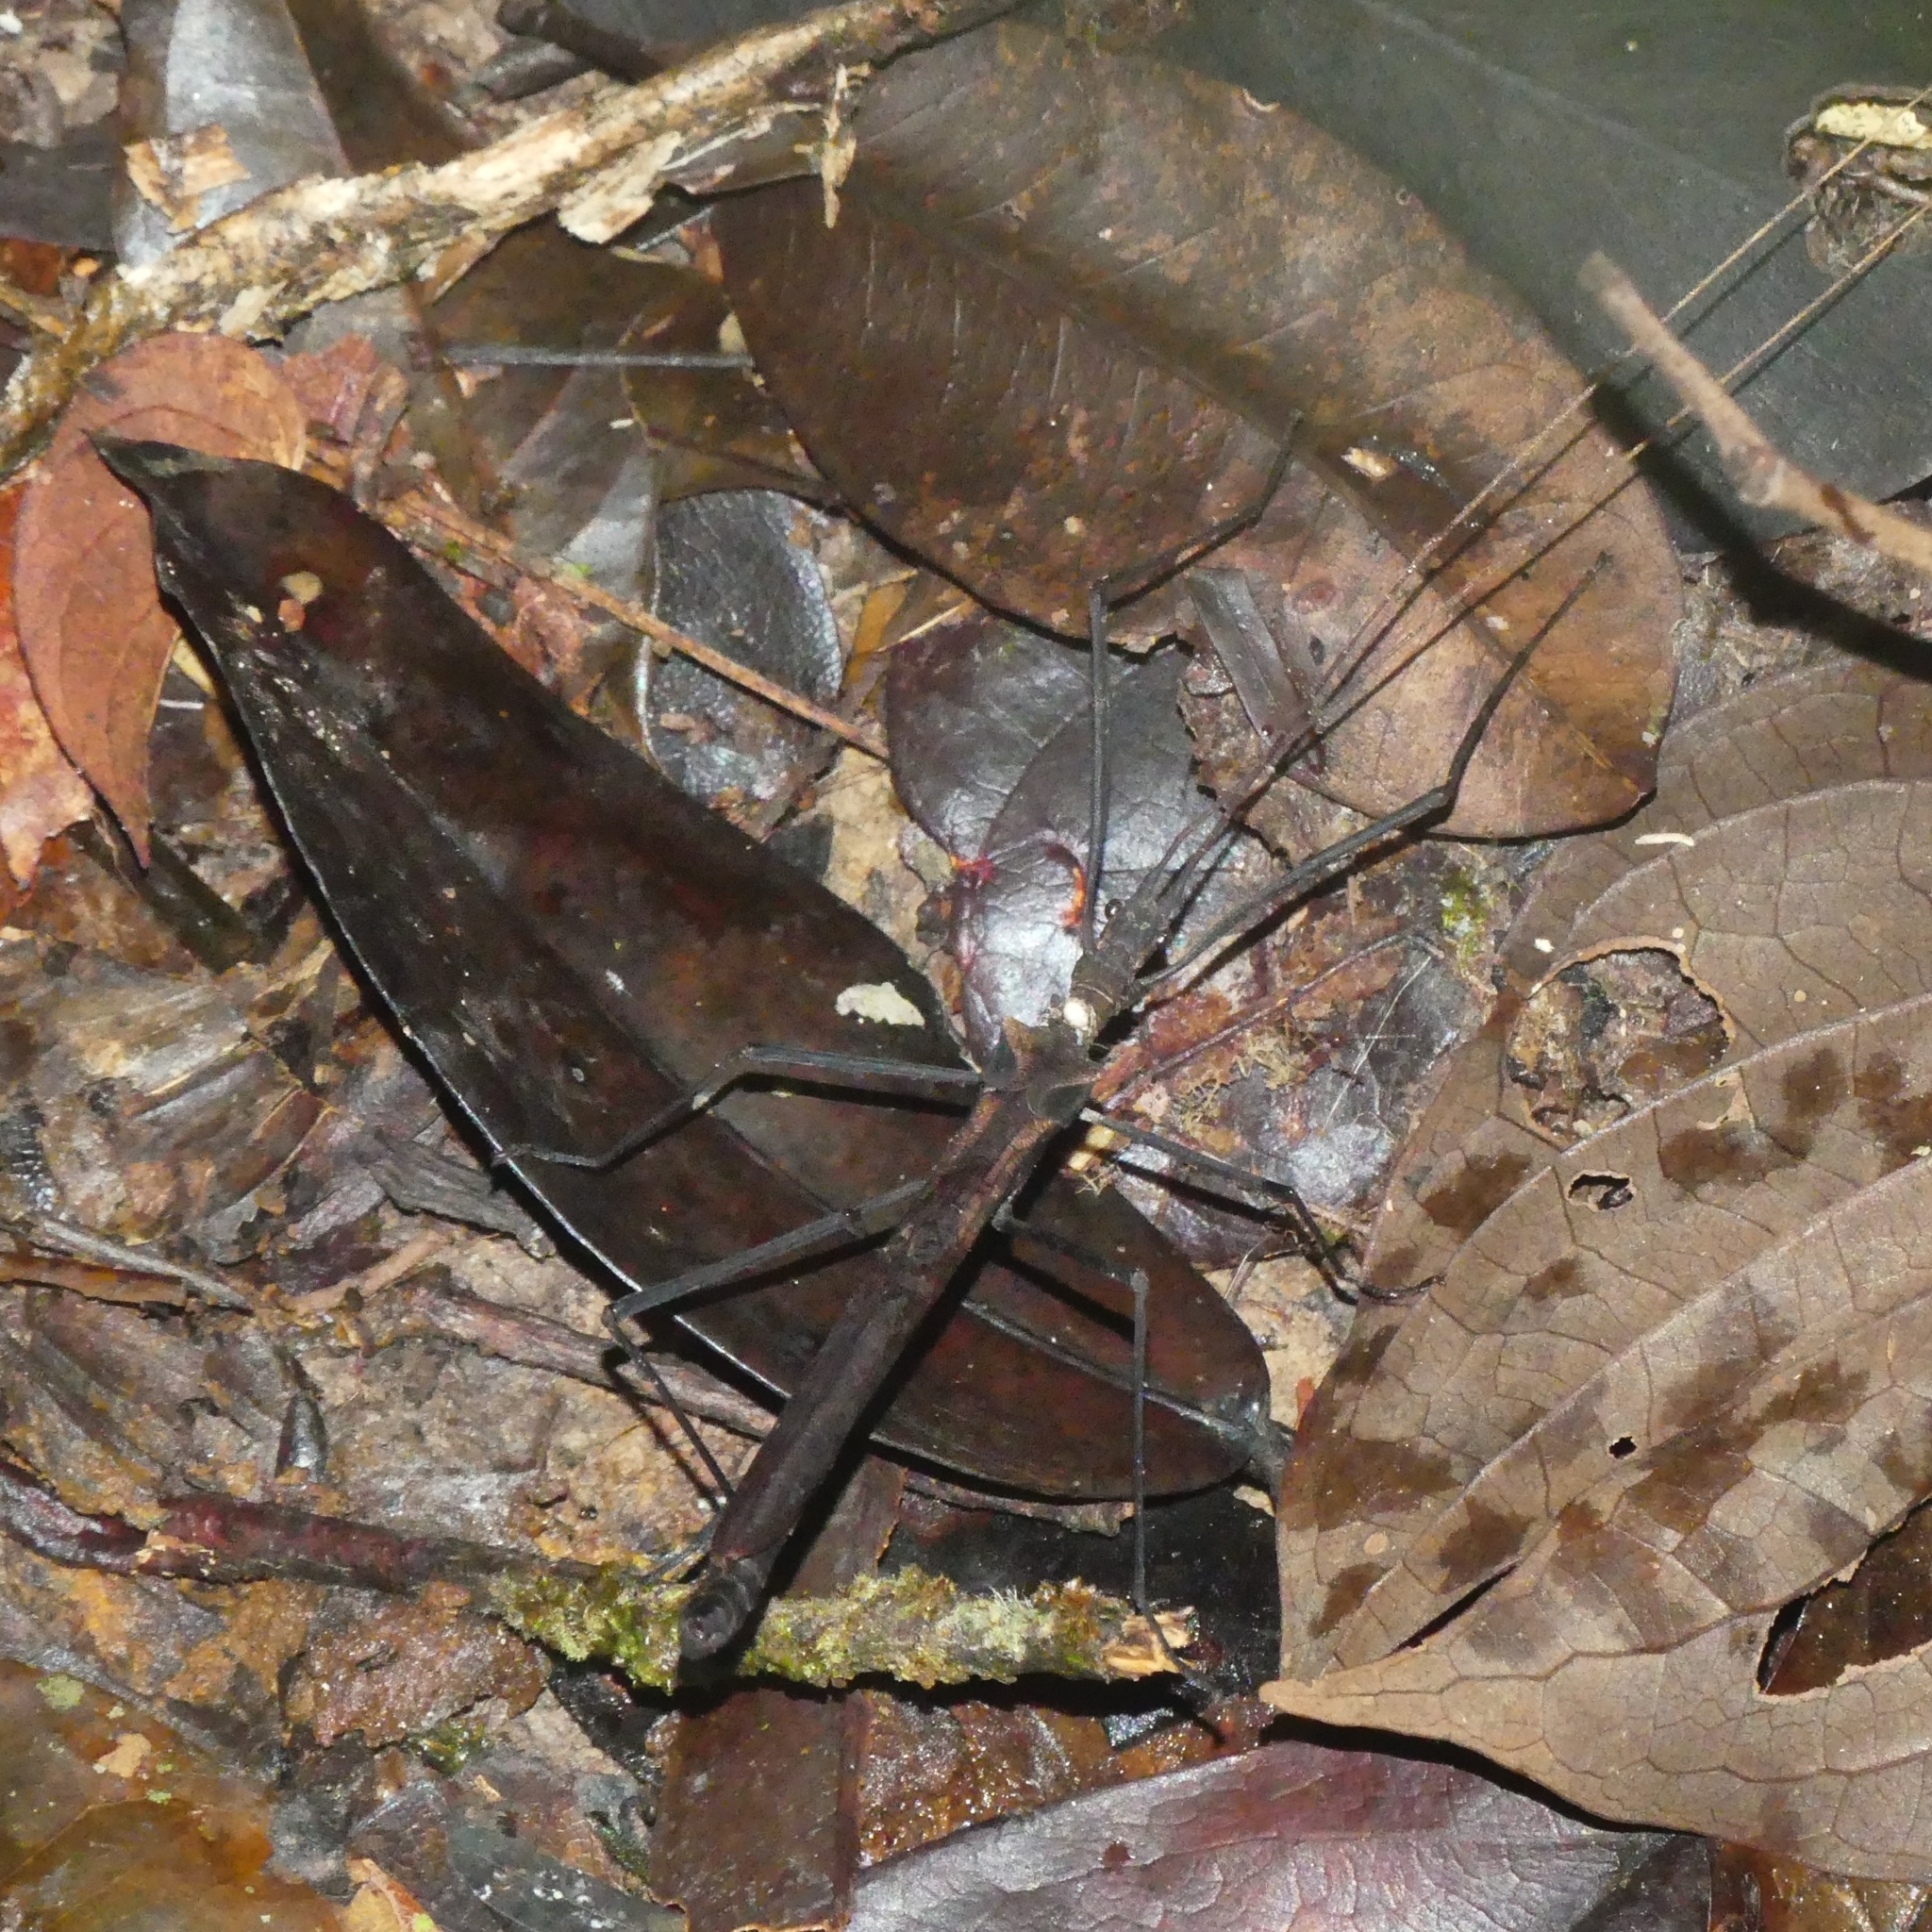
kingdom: Animalia
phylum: Arthropoda
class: Insecta
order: Phasmida
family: Pseudophasmatidae
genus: Pseudophasma
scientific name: Pseudophasma phthisicum
